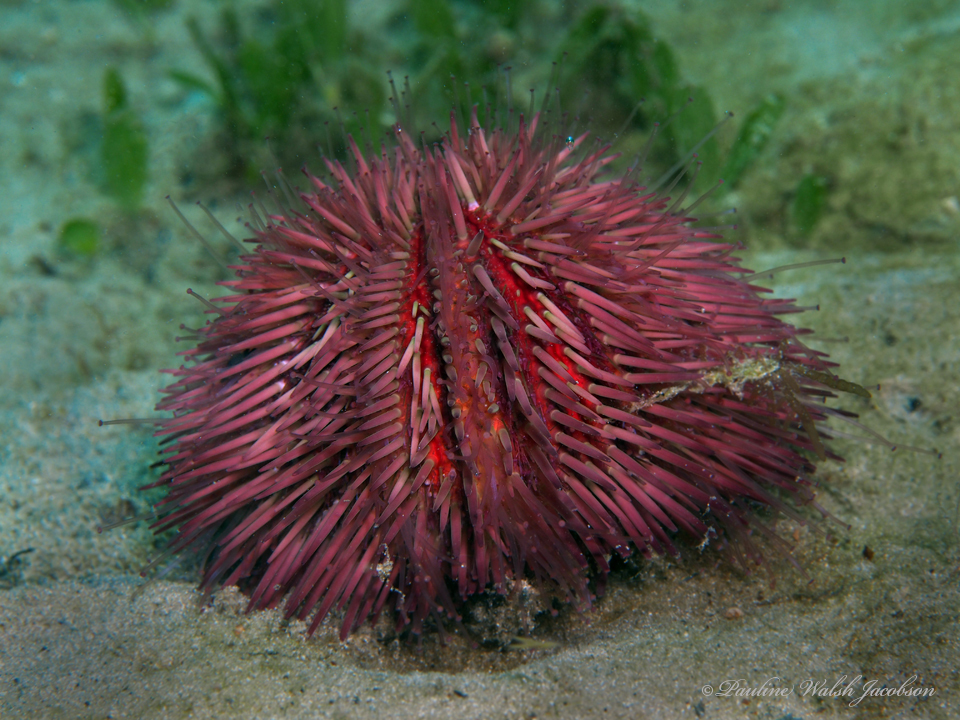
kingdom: Animalia
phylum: Echinodermata
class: Echinoidea
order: Camarodonta
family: Toxopneustidae
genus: Lytechinus
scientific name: Lytechinus variegatus
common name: Variegated urchin
